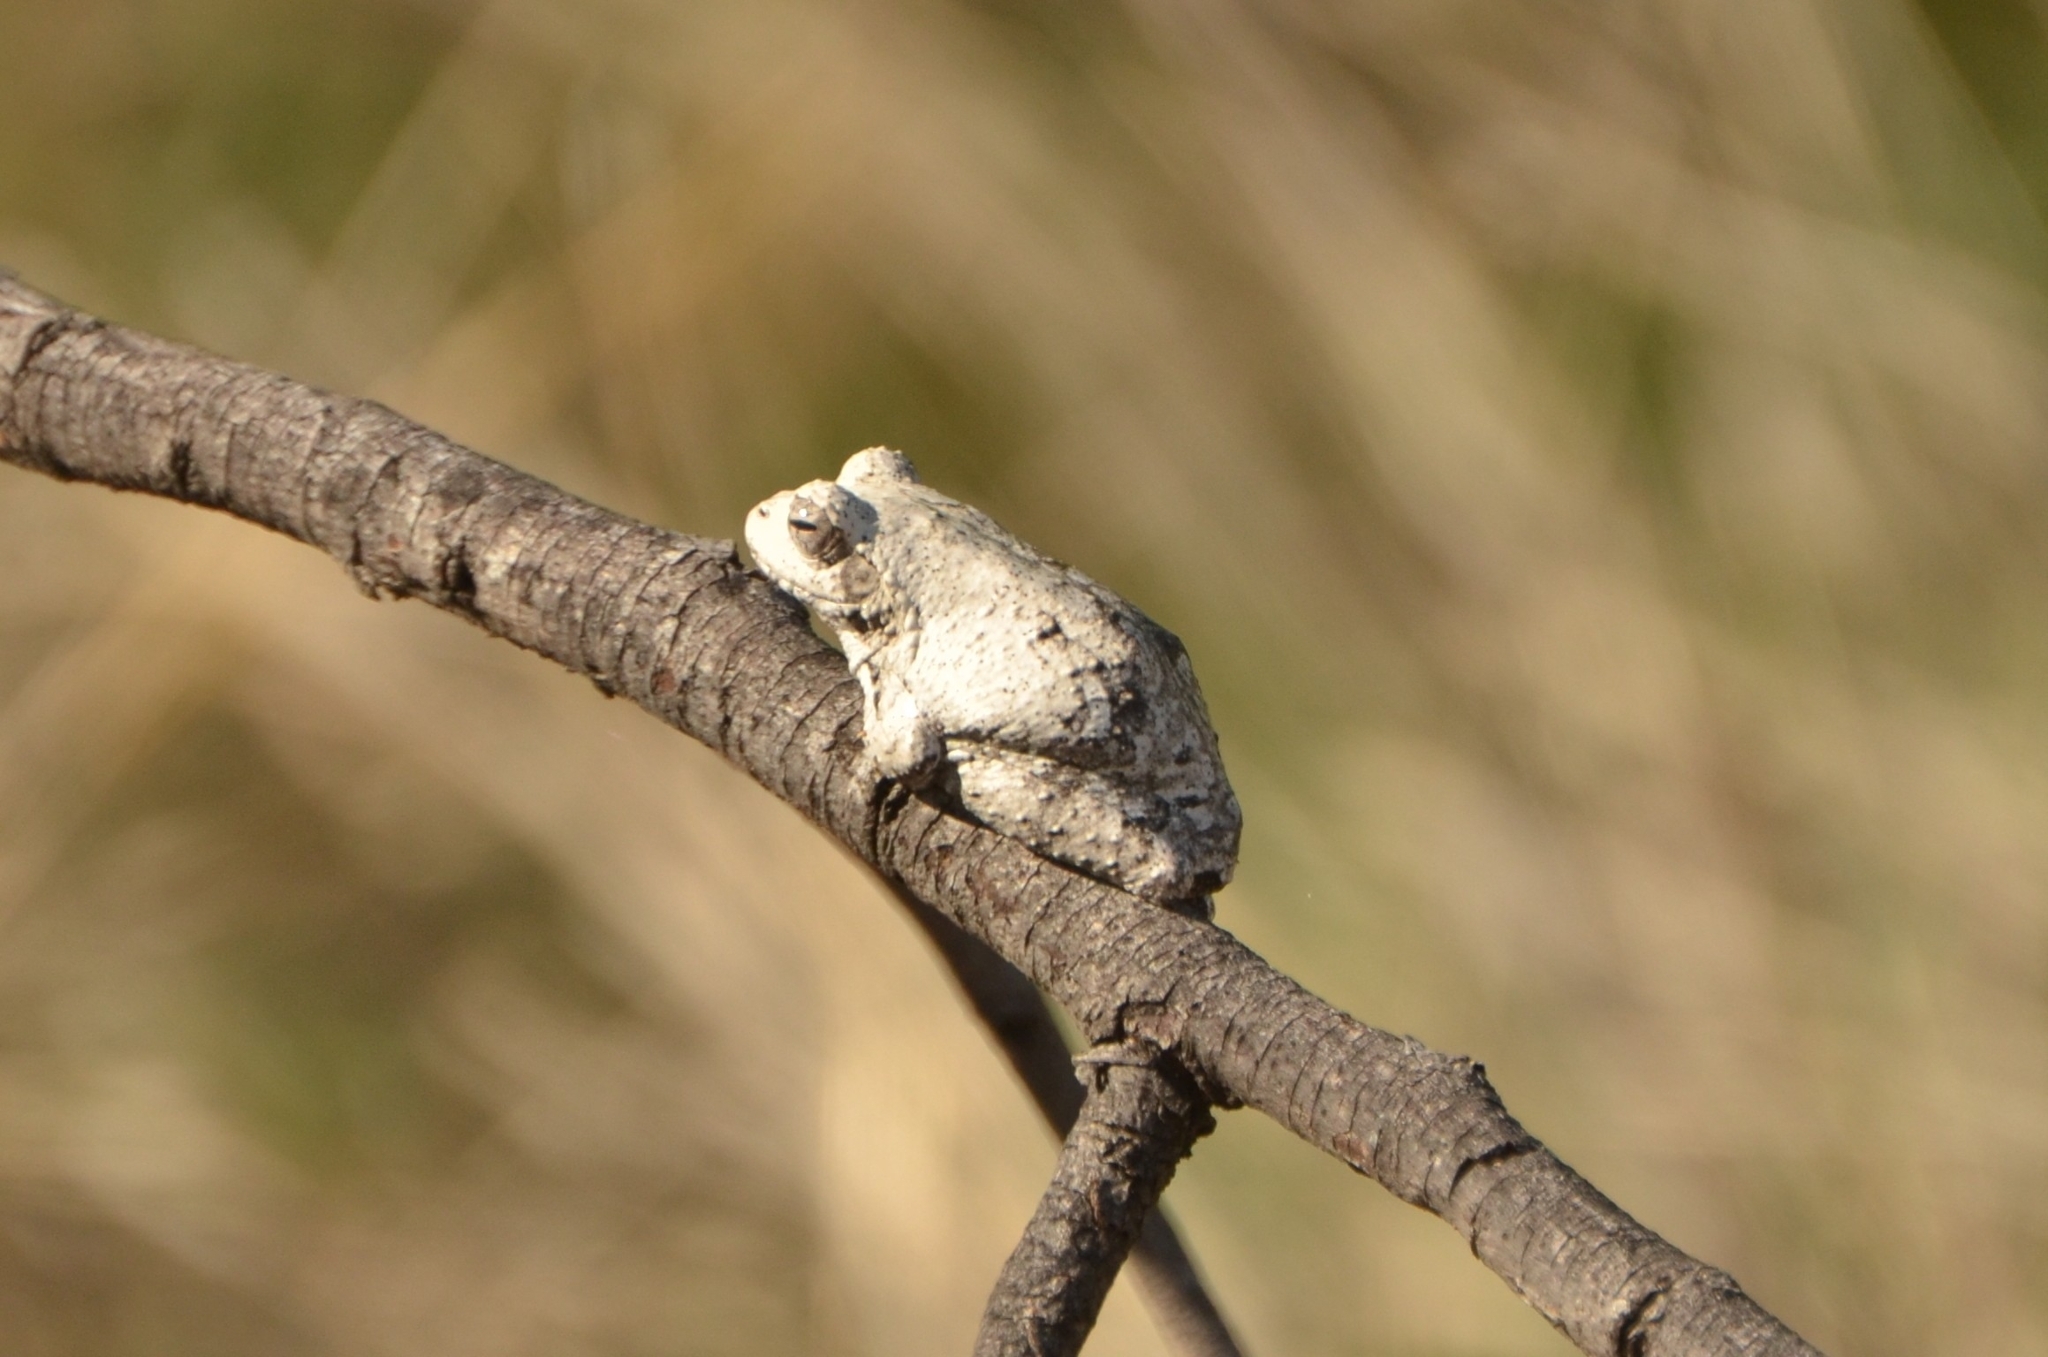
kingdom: Animalia
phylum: Chordata
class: Amphibia
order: Anura
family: Rhacophoridae
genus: Chiromantis
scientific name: Chiromantis xerampelina
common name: African gray treefrog
